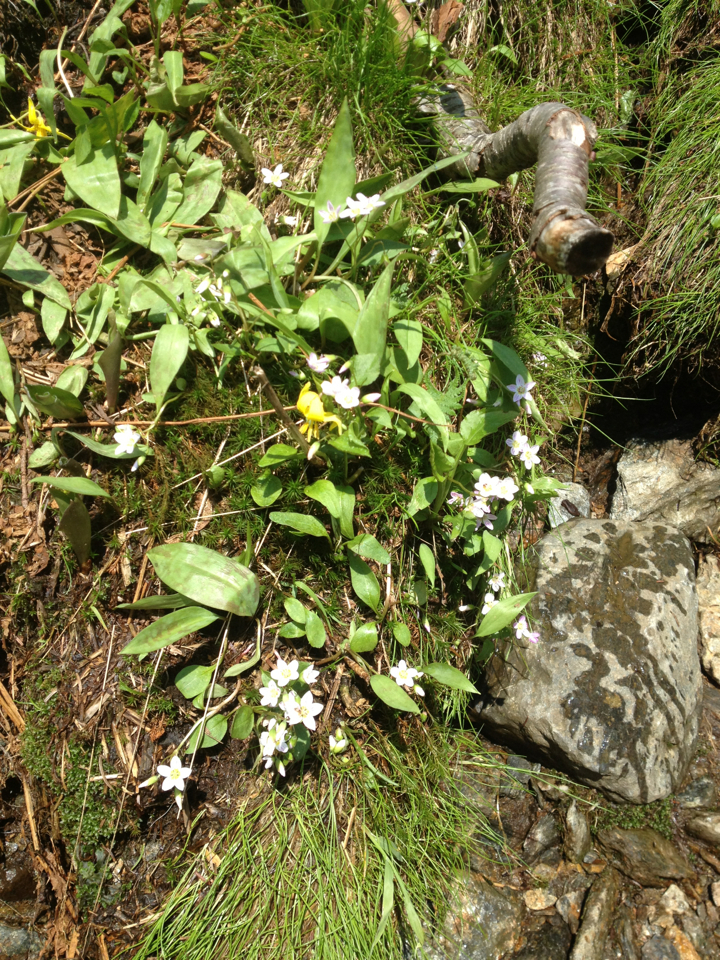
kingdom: Plantae
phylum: Tracheophyta
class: Magnoliopsida
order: Caryophyllales
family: Montiaceae
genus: Claytonia
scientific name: Claytonia caroliniana
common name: Carolina spring beauty
